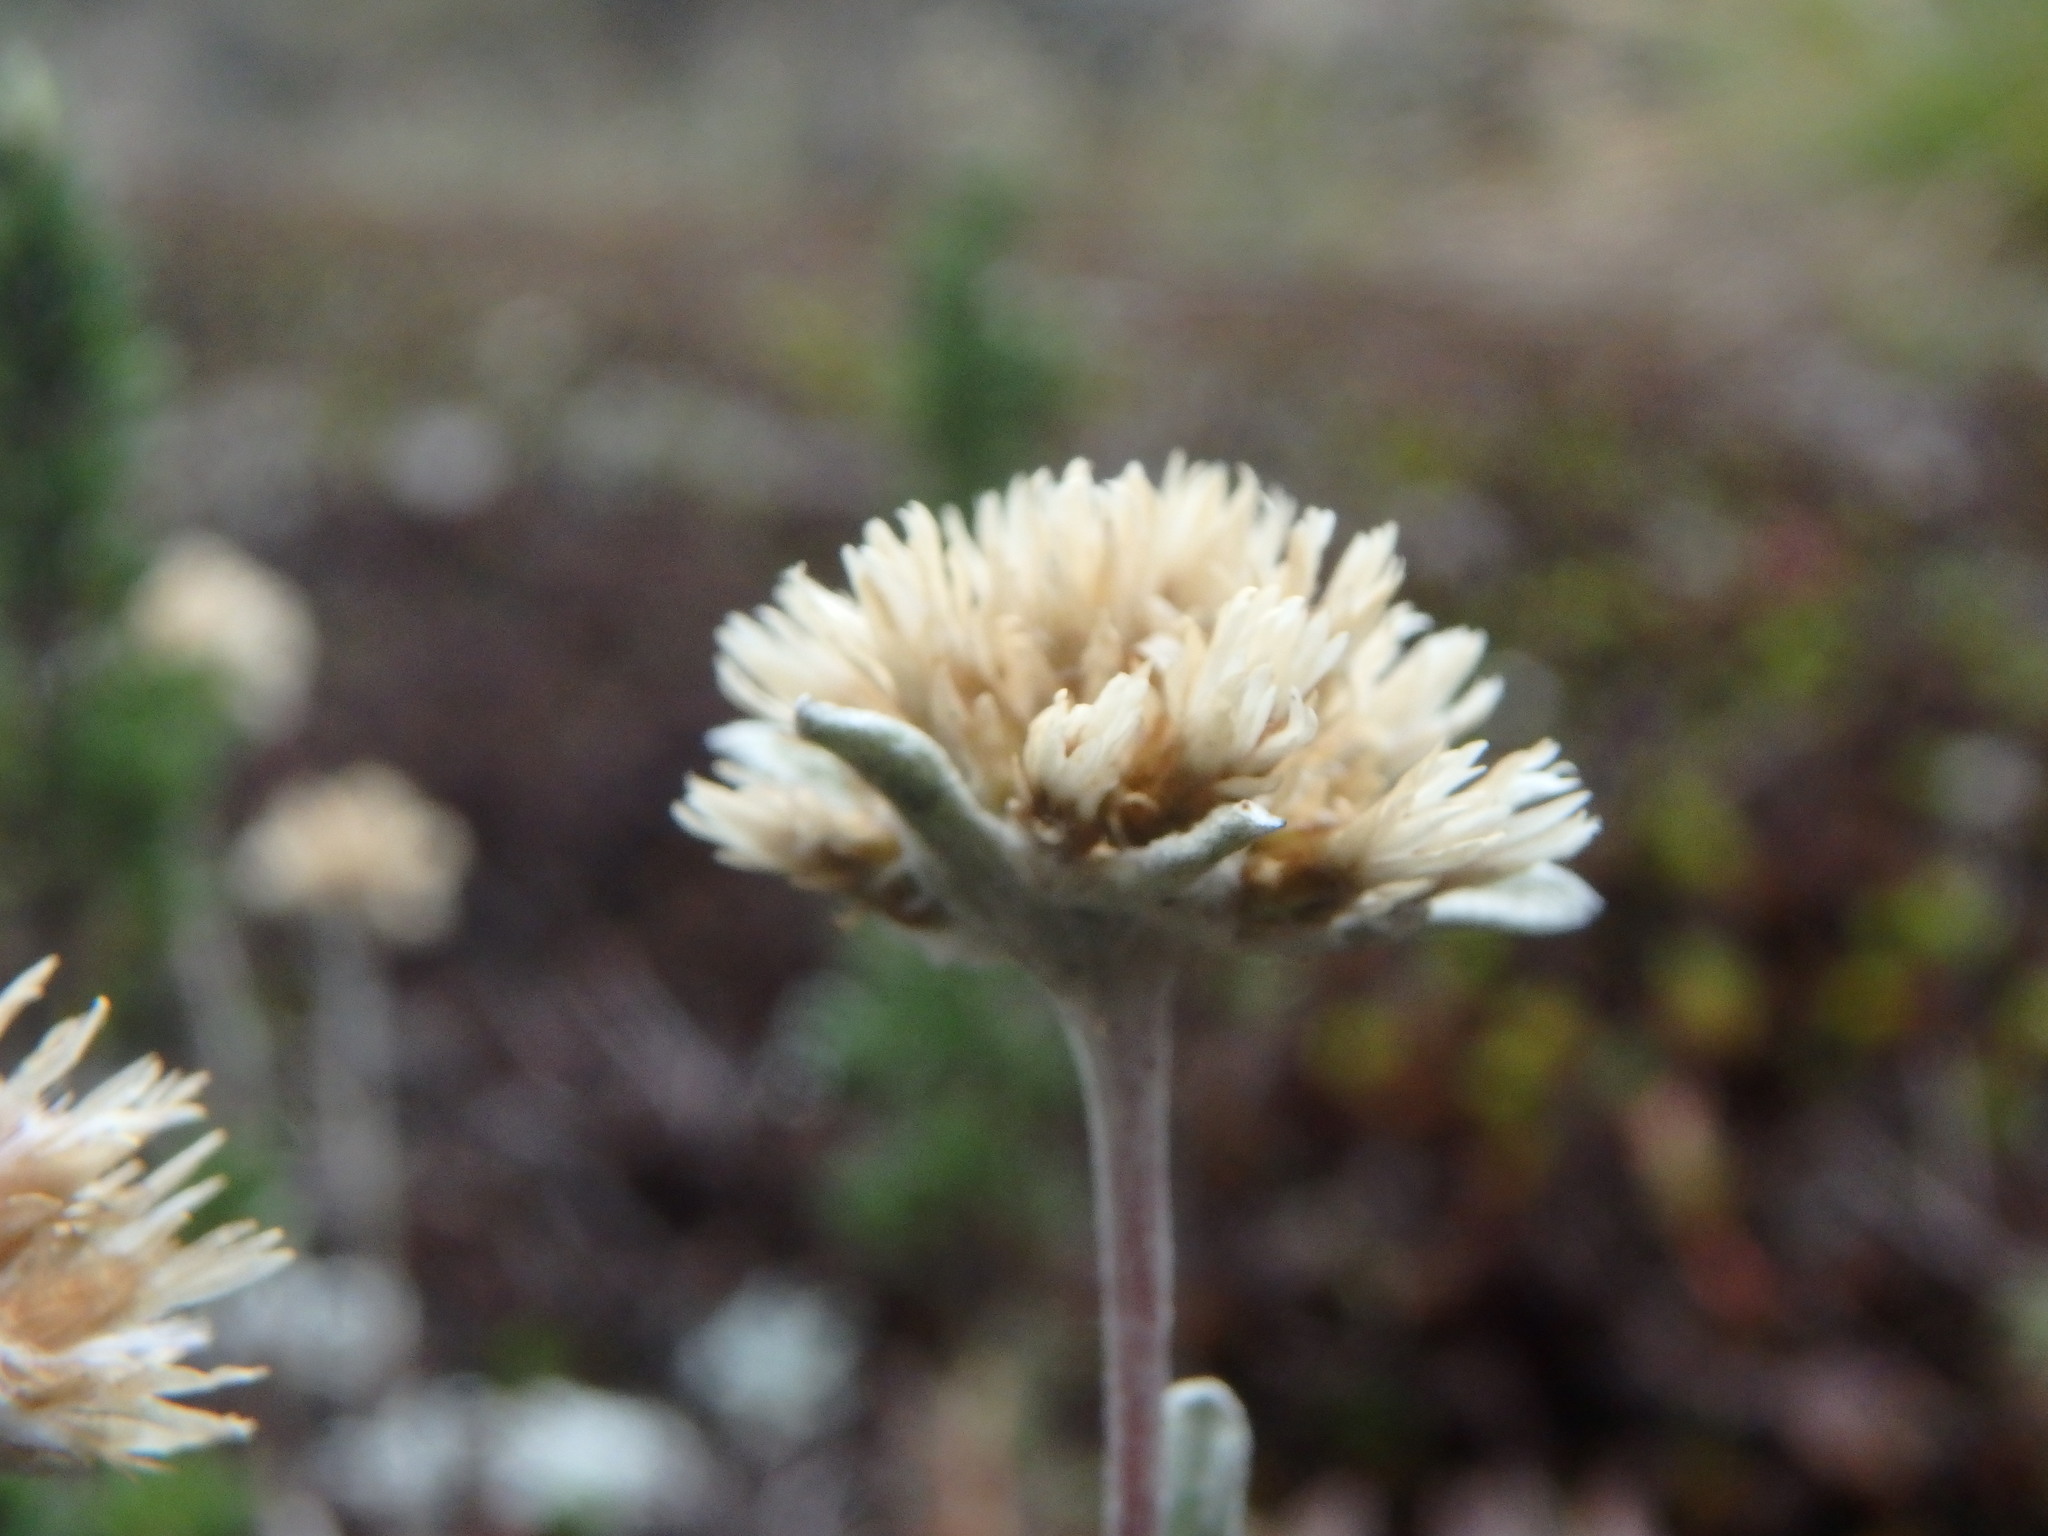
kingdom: Plantae
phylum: Tracheophyta
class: Magnoliopsida
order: Asterales
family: Asteraceae
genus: Pseudognaphalium
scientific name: Pseudognaphalium paramorum
